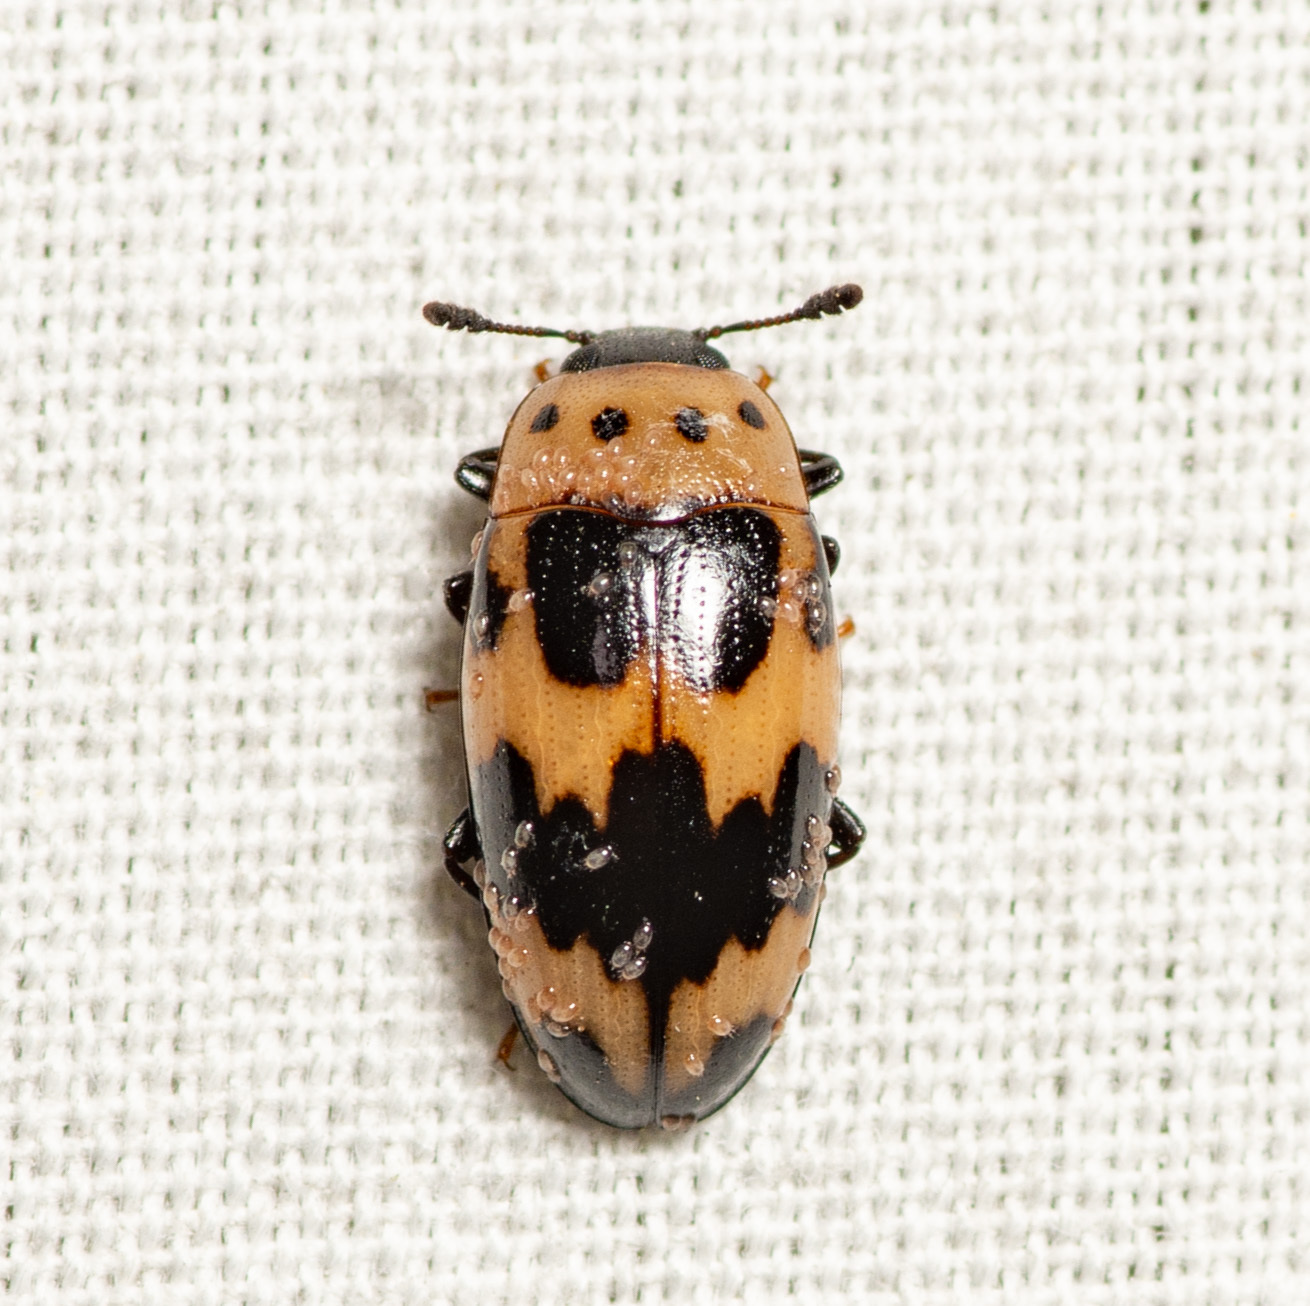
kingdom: Animalia
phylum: Arthropoda
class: Insecta
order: Coleoptera
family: Erotylidae
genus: Ischyrus
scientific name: Ischyrus quadripunctatus
